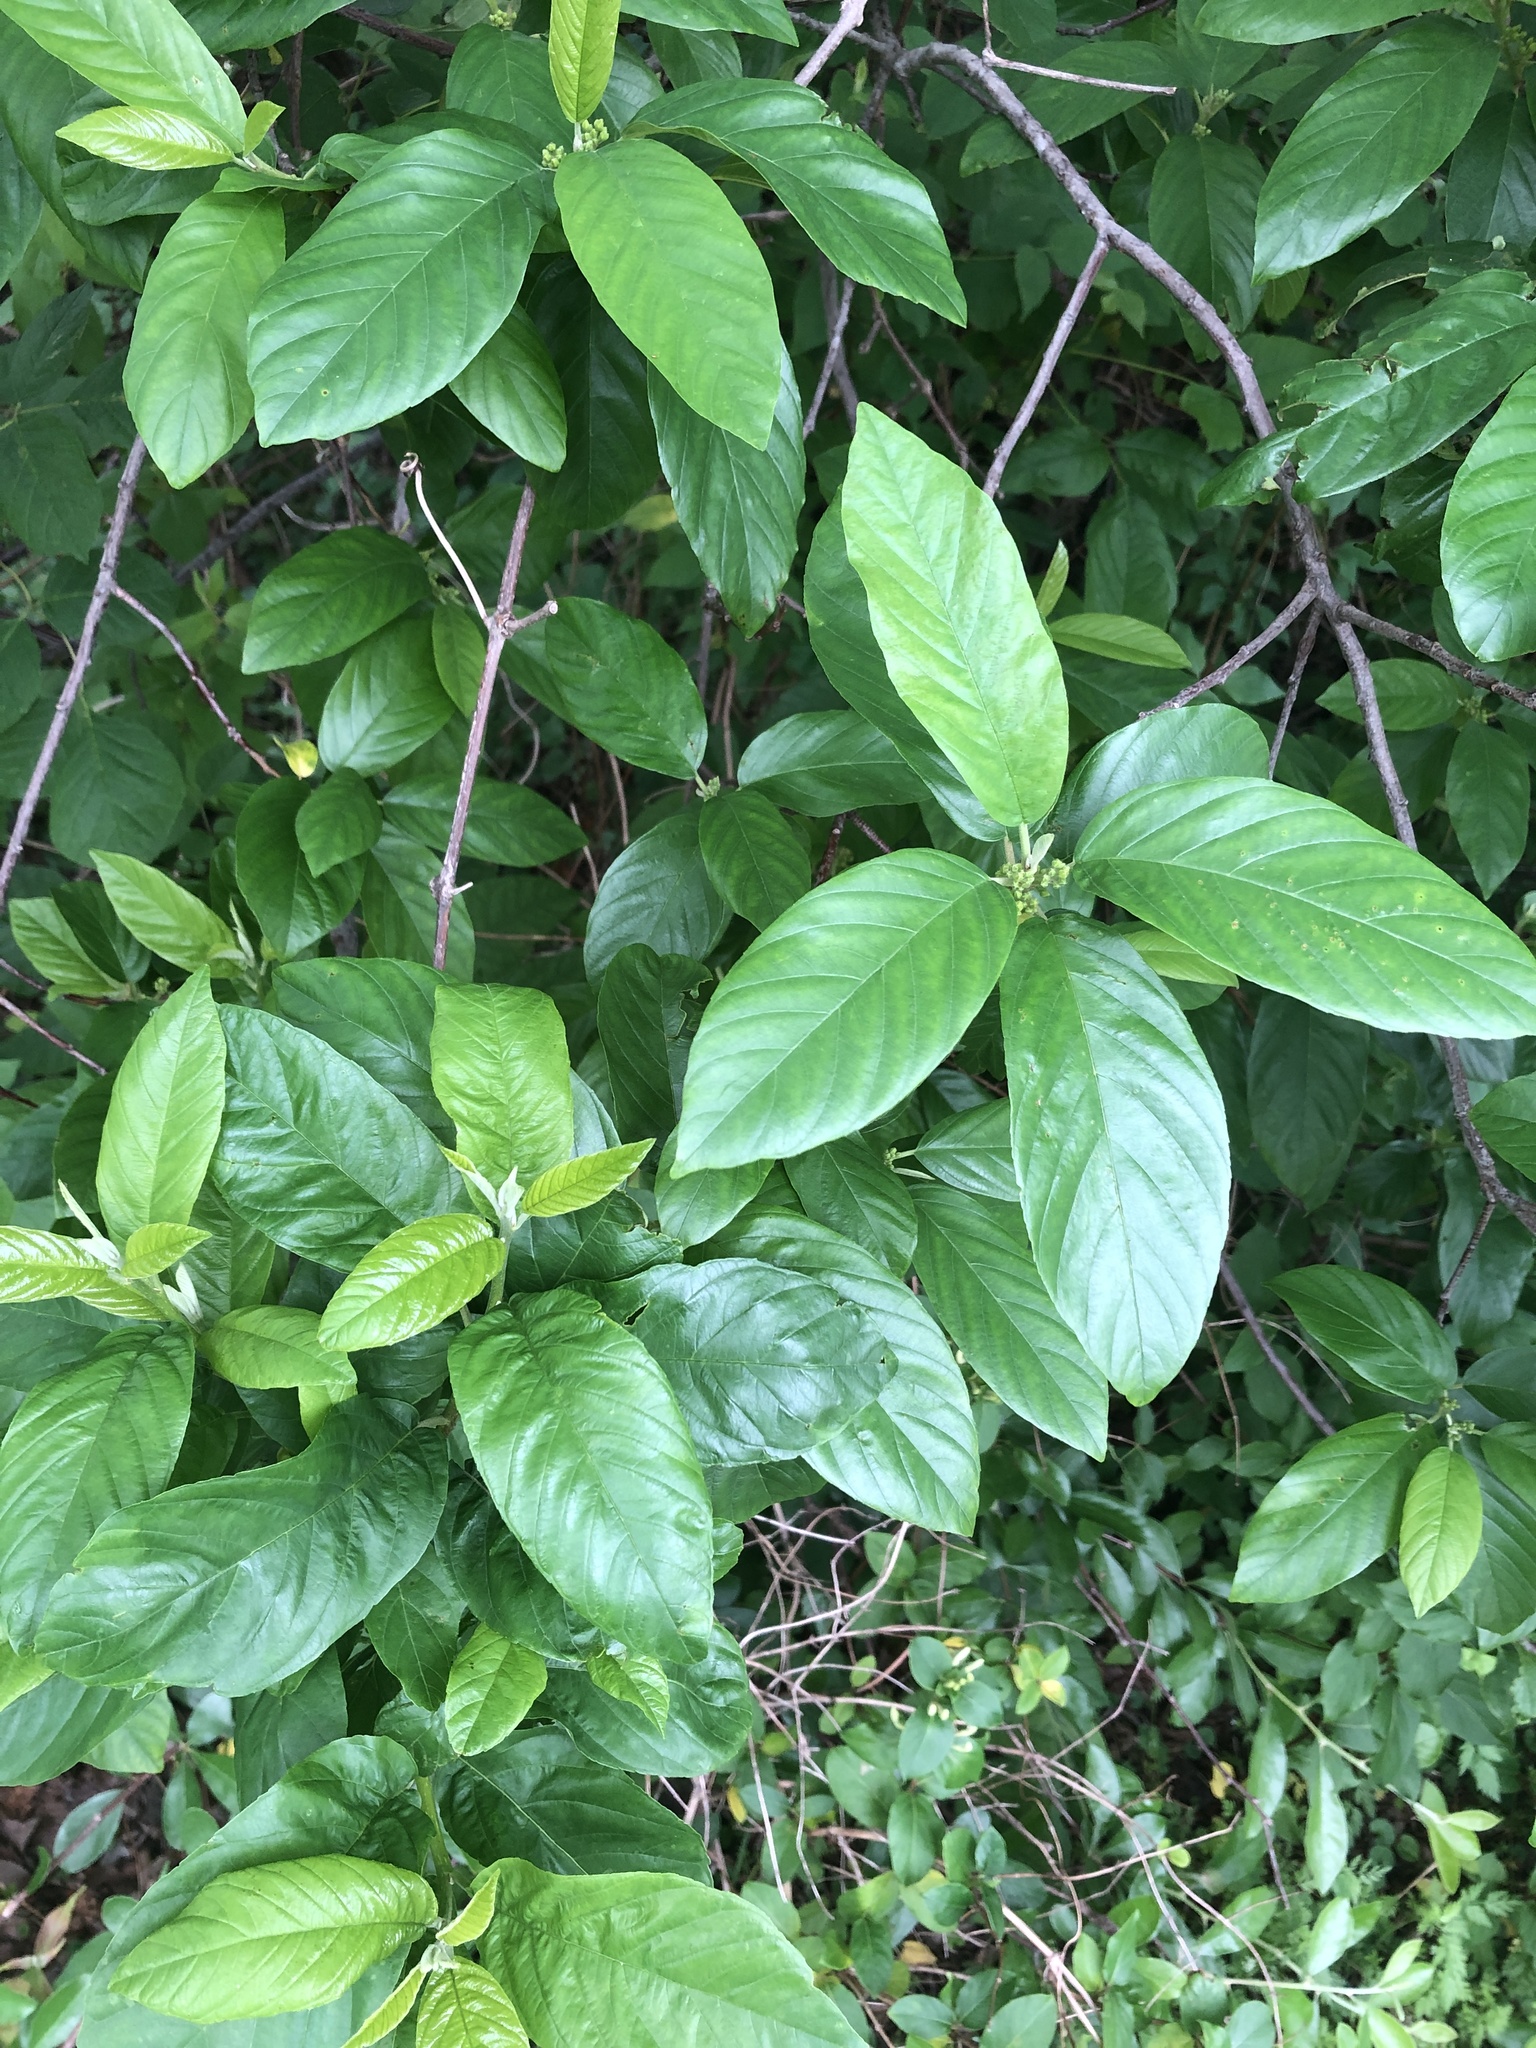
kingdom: Plantae
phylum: Tracheophyta
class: Magnoliopsida
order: Rosales
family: Rhamnaceae
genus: Frangula
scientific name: Frangula caroliniana
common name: Carolina buckthorn
